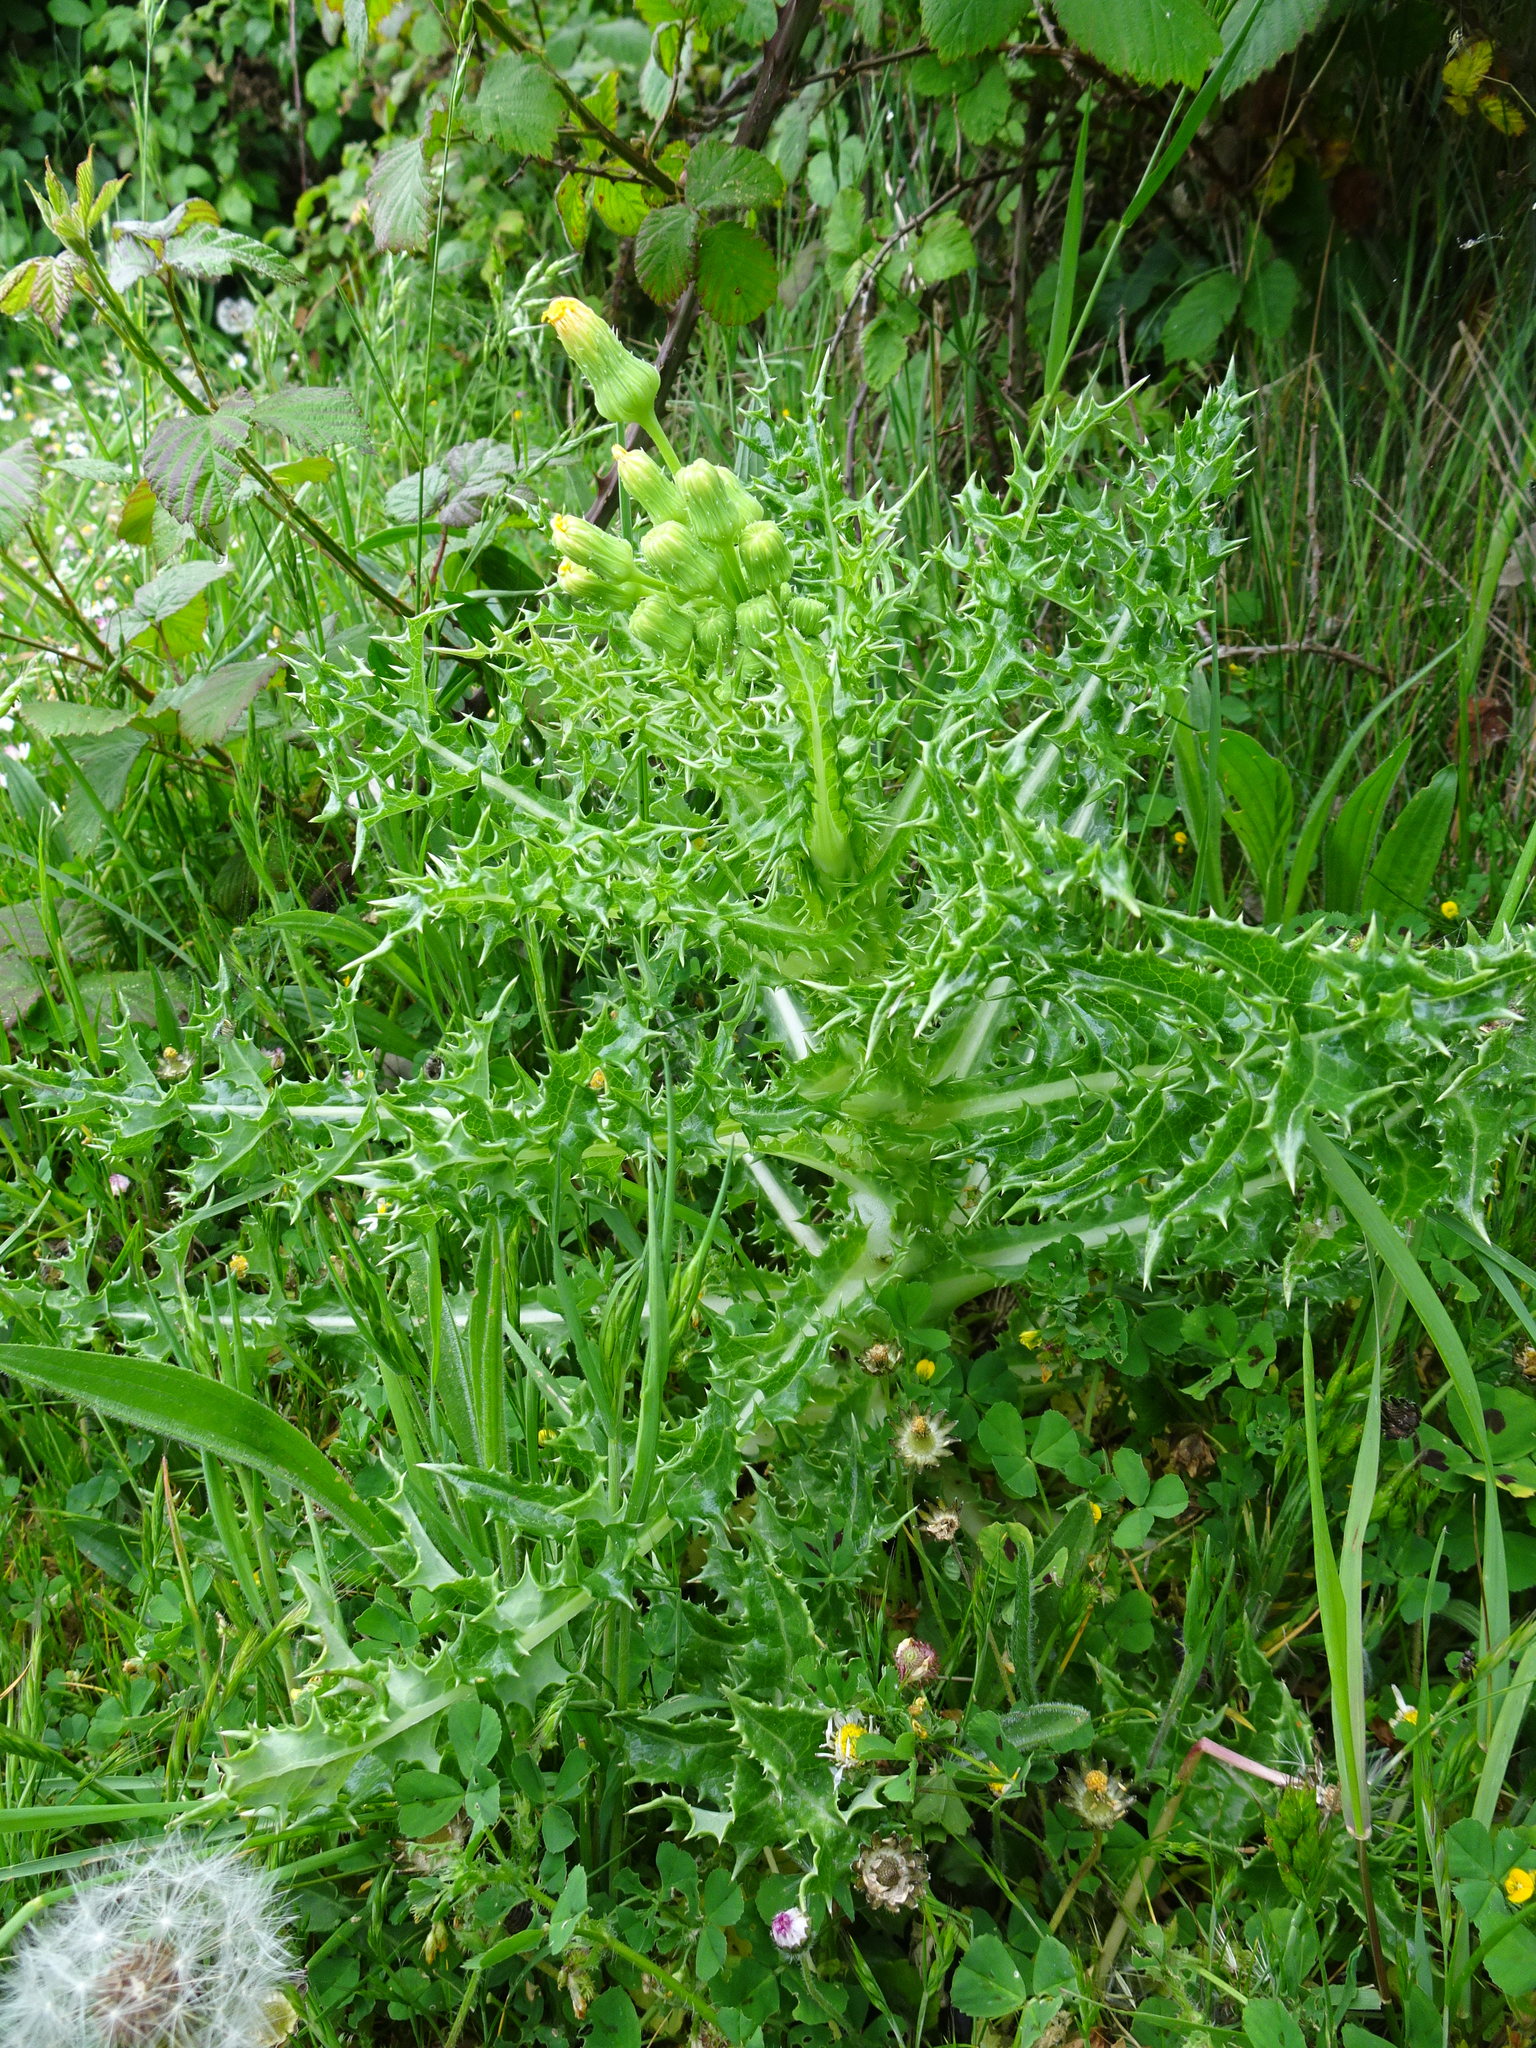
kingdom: Plantae
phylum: Tracheophyta
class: Magnoliopsida
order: Asterales
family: Asteraceae
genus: Sonchus
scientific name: Sonchus asper
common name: Prickly sow-thistle
